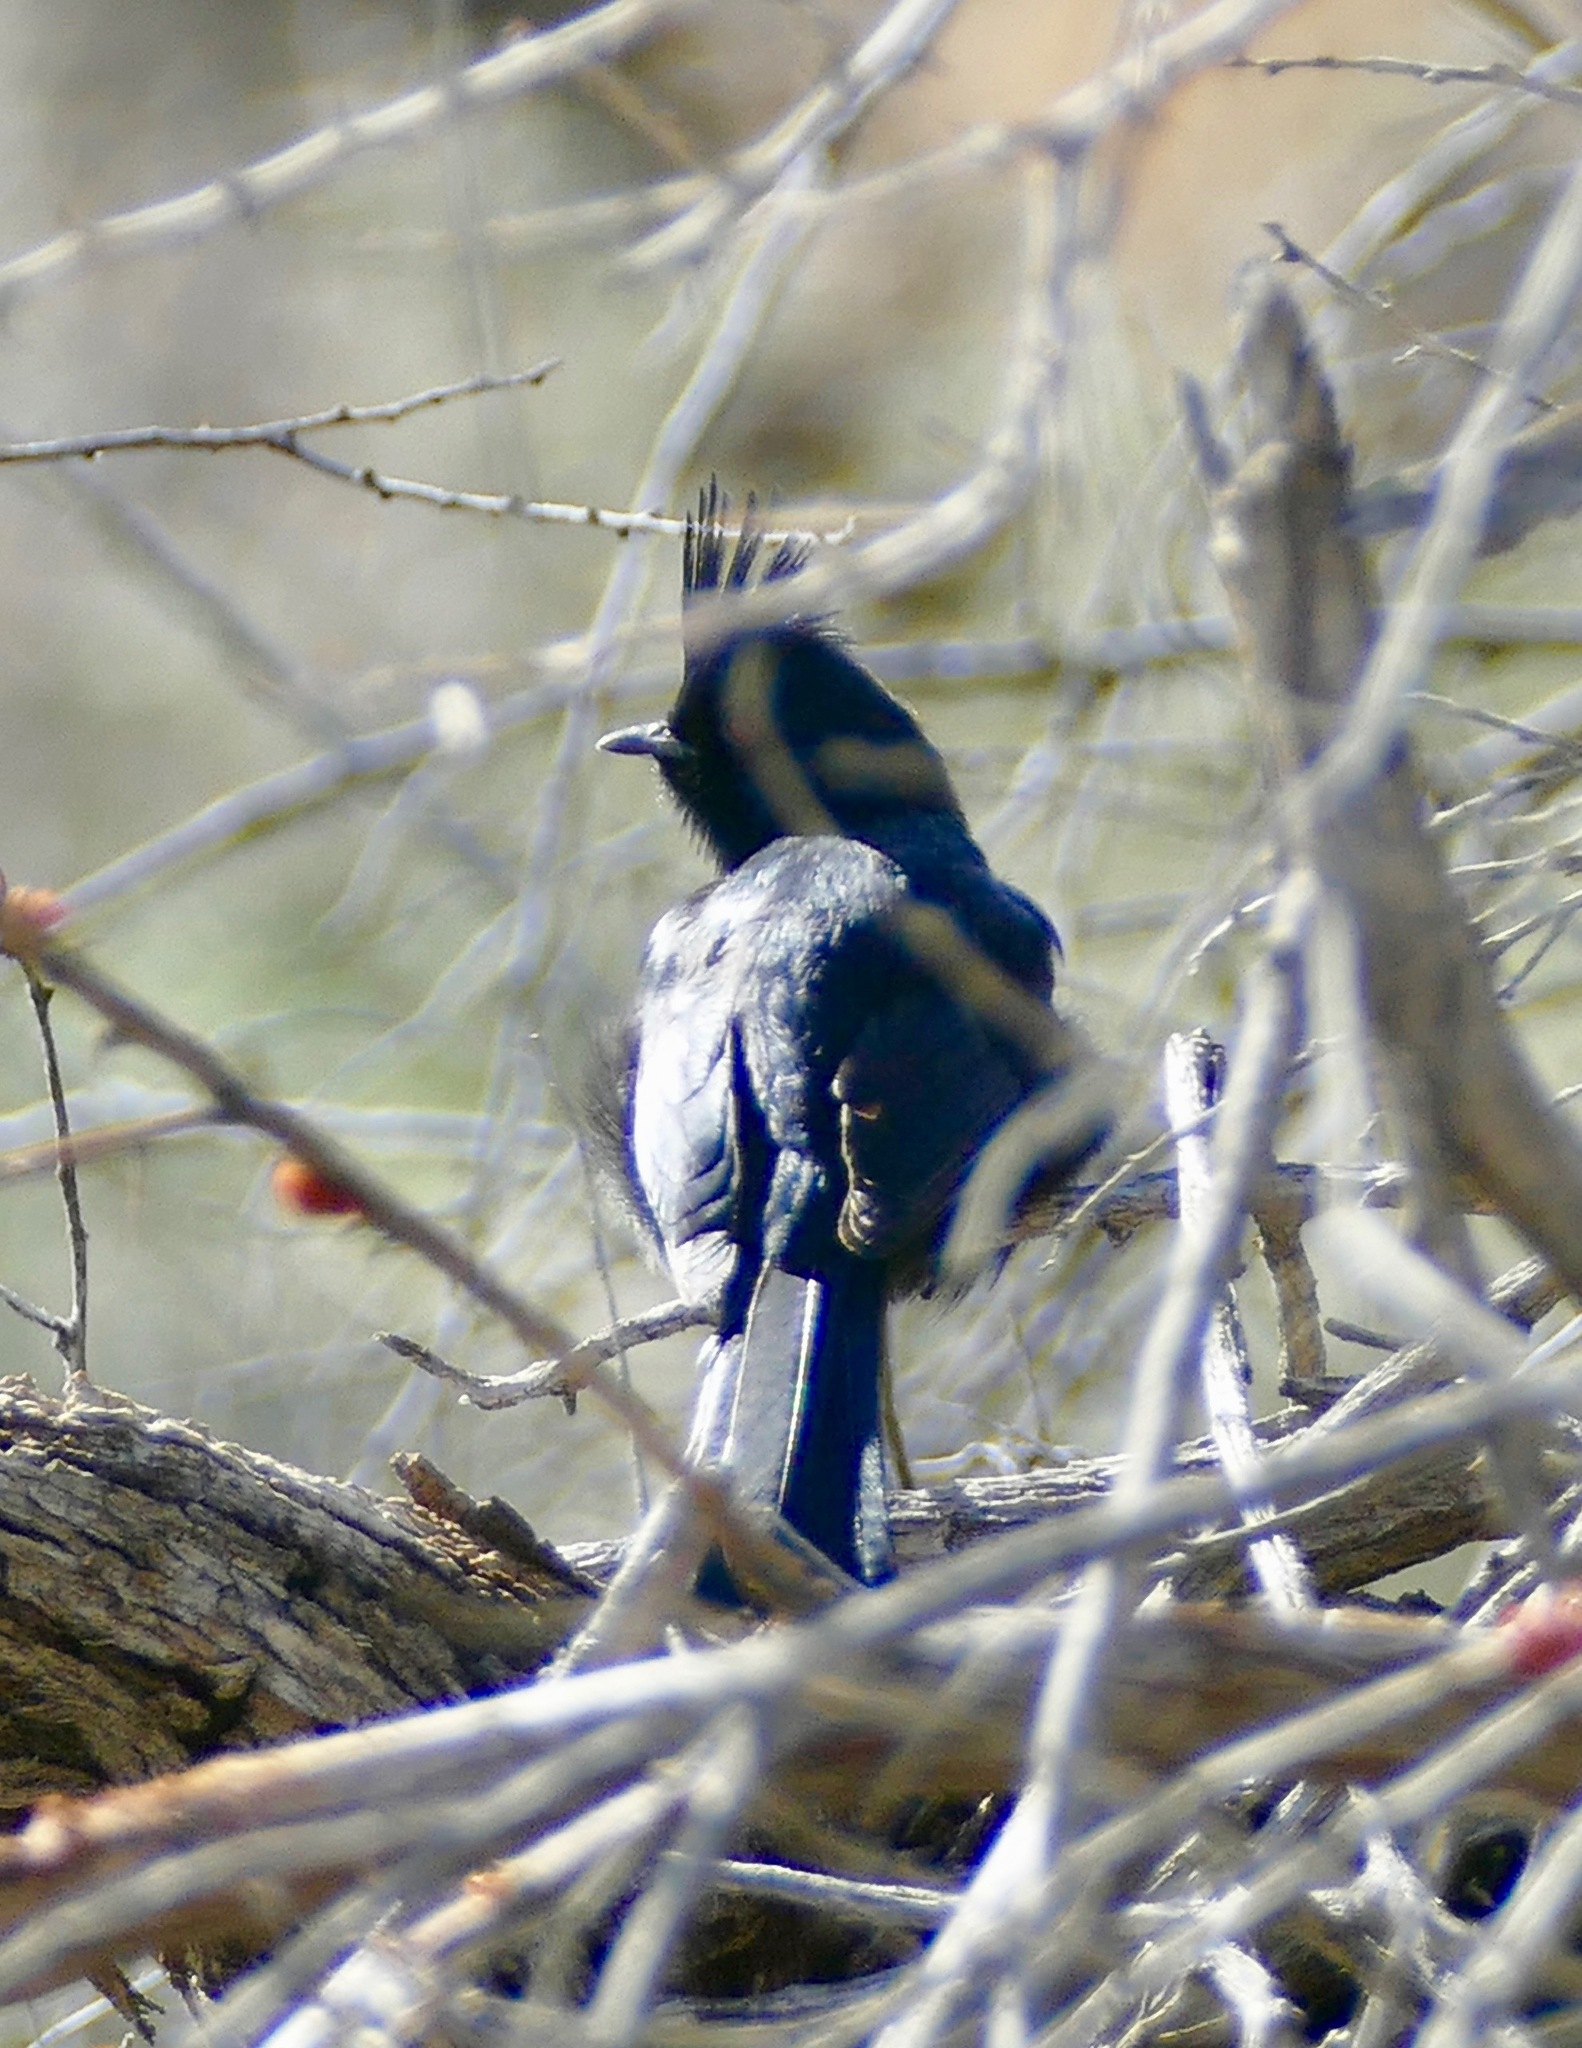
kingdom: Animalia
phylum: Chordata
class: Aves
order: Passeriformes
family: Ptilogonatidae
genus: Phainopepla
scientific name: Phainopepla nitens
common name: Phainopepla
